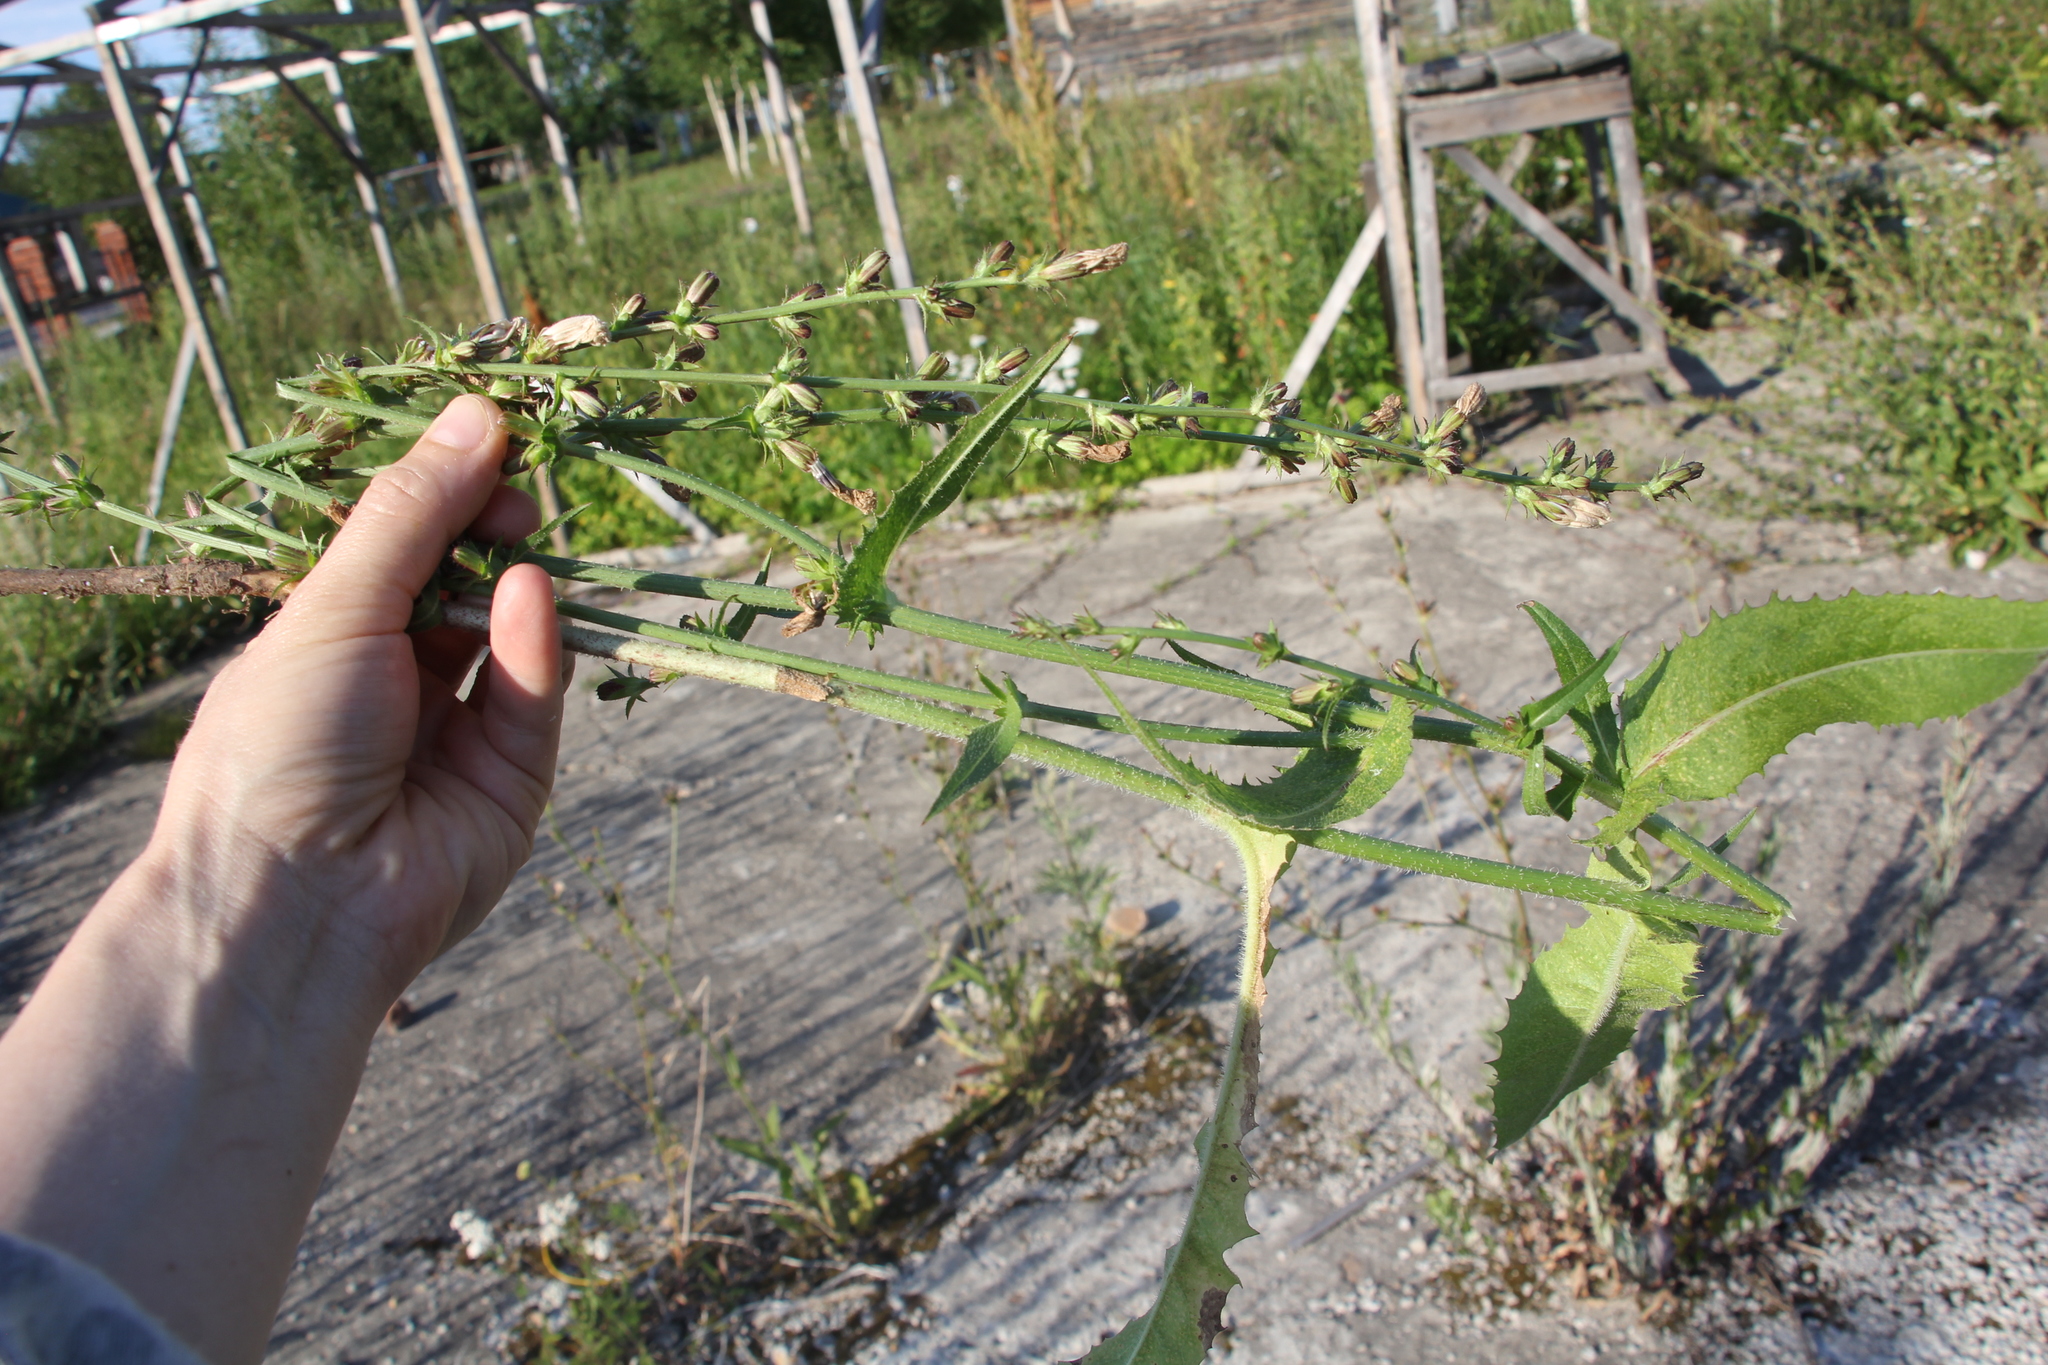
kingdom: Plantae
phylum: Tracheophyta
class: Magnoliopsida
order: Asterales
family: Asteraceae
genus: Cichorium
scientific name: Cichorium intybus
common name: Chicory
